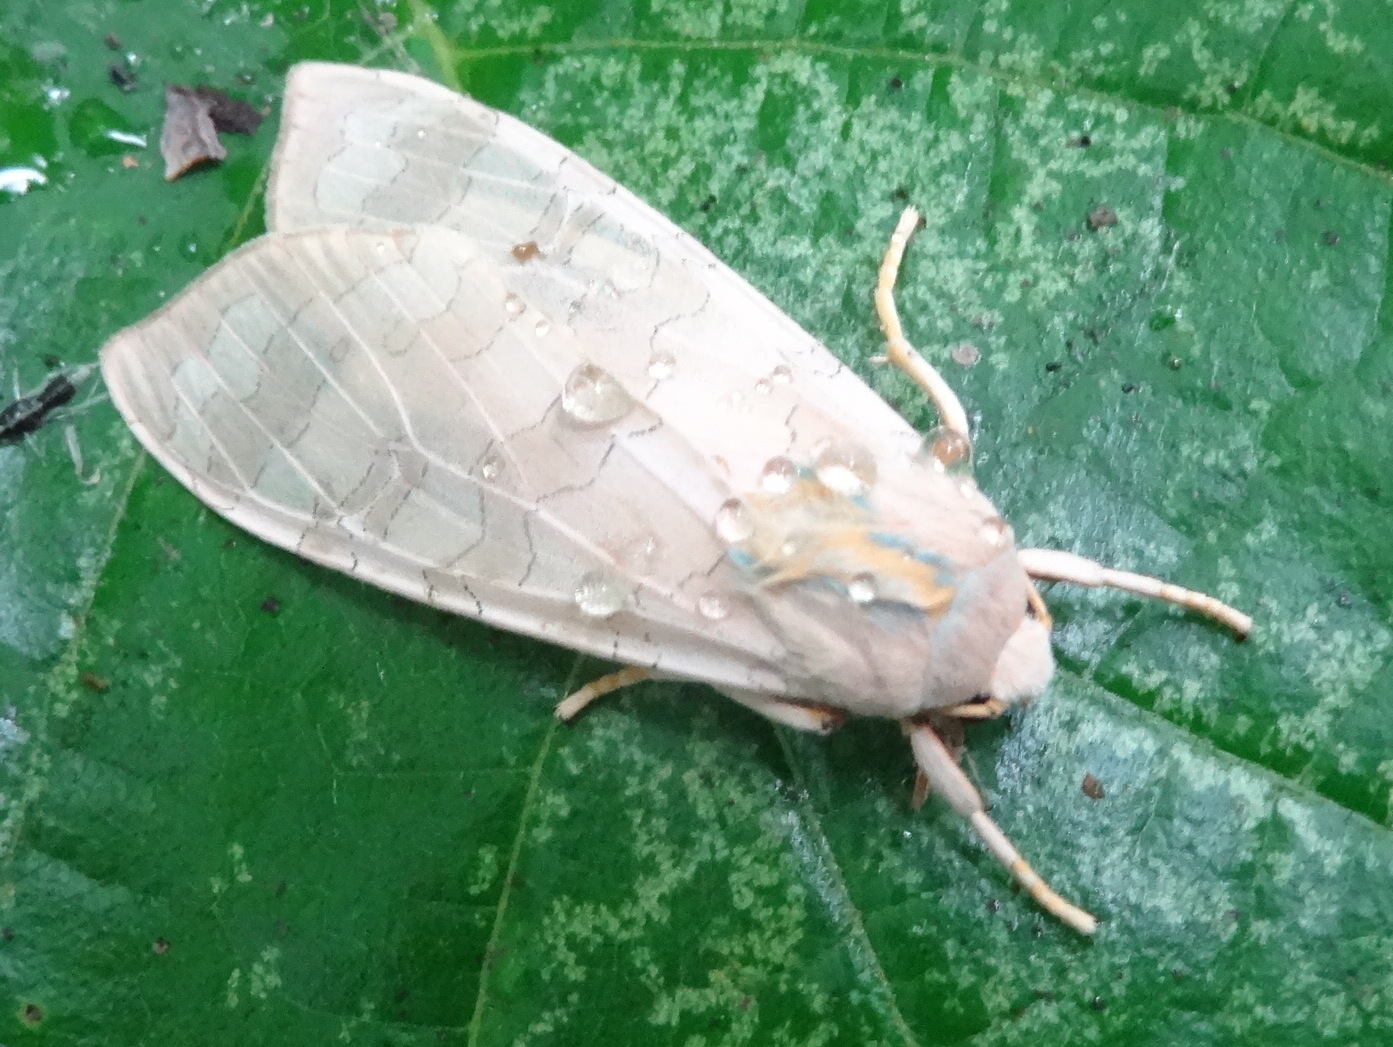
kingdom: Animalia
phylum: Arthropoda
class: Insecta
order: Lepidoptera
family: Erebidae
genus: Halysidota
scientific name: Halysidota tessellaris
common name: Banded tussock moth
